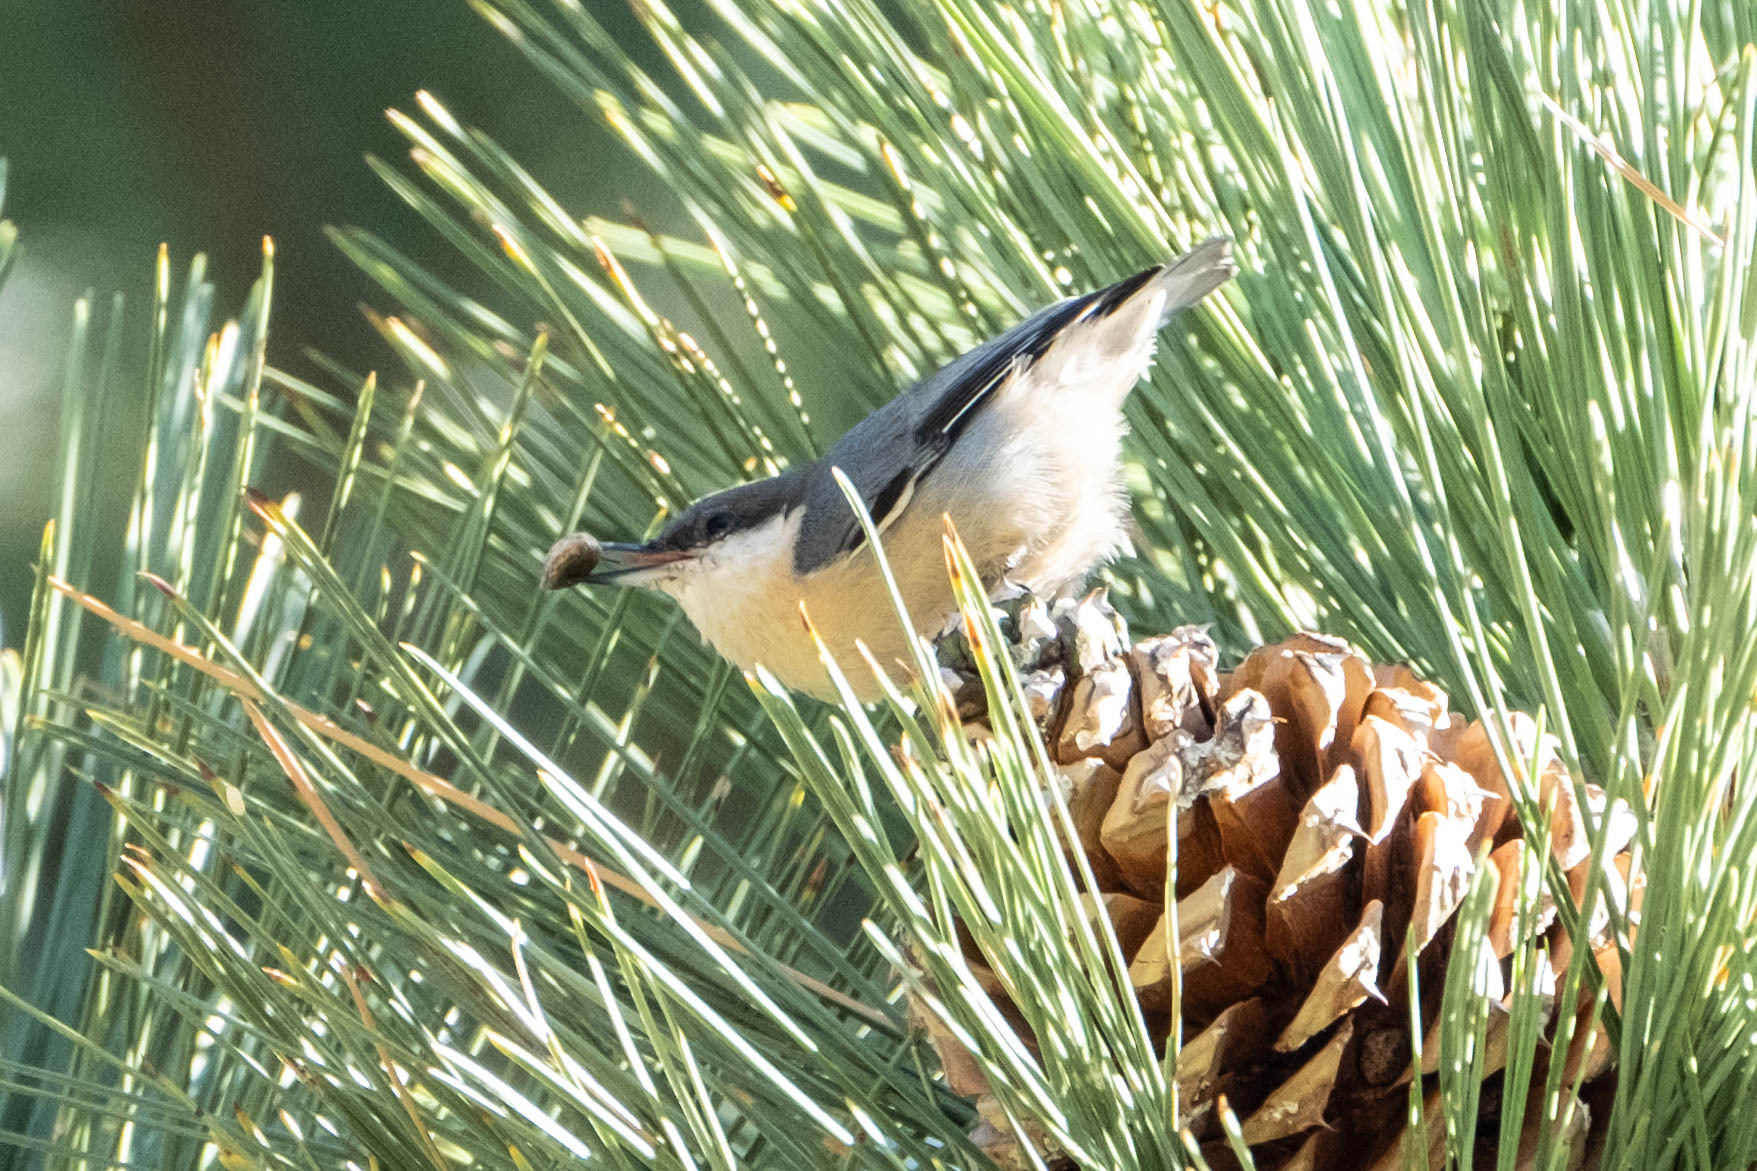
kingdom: Animalia
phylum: Chordata
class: Aves
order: Passeriformes
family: Sittidae
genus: Sitta
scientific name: Sitta pygmaea
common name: Pygmy nuthatch
